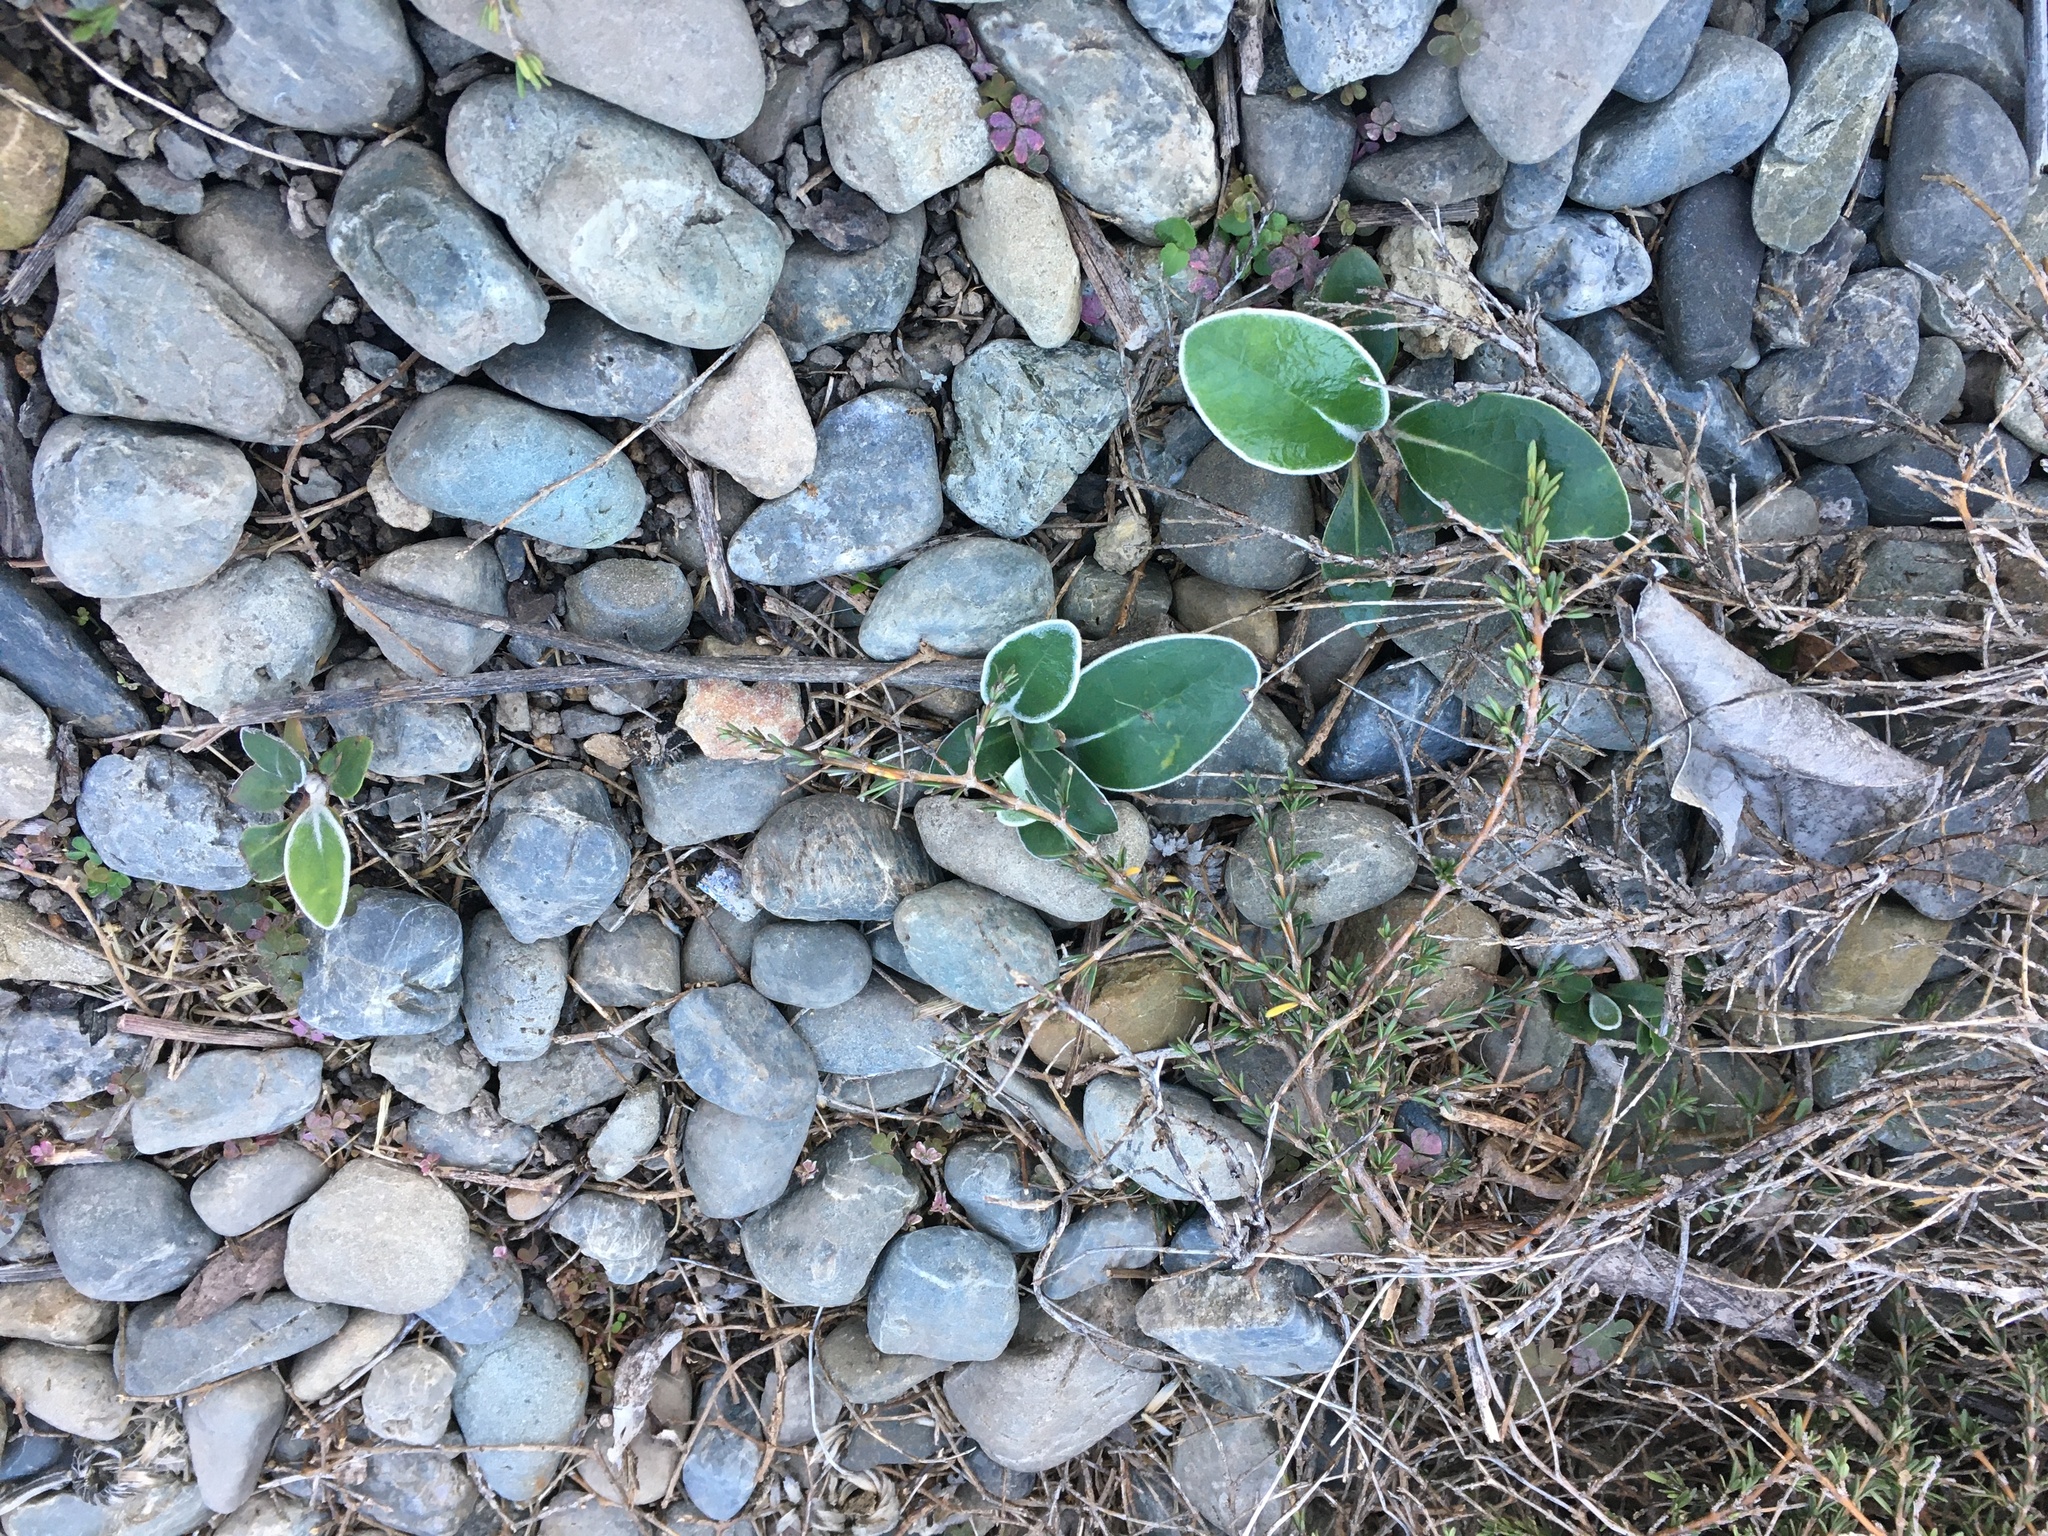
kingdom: Plantae
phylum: Tracheophyta
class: Magnoliopsida
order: Asterales
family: Asteraceae
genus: Pachystegia
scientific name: Pachystegia insignis
